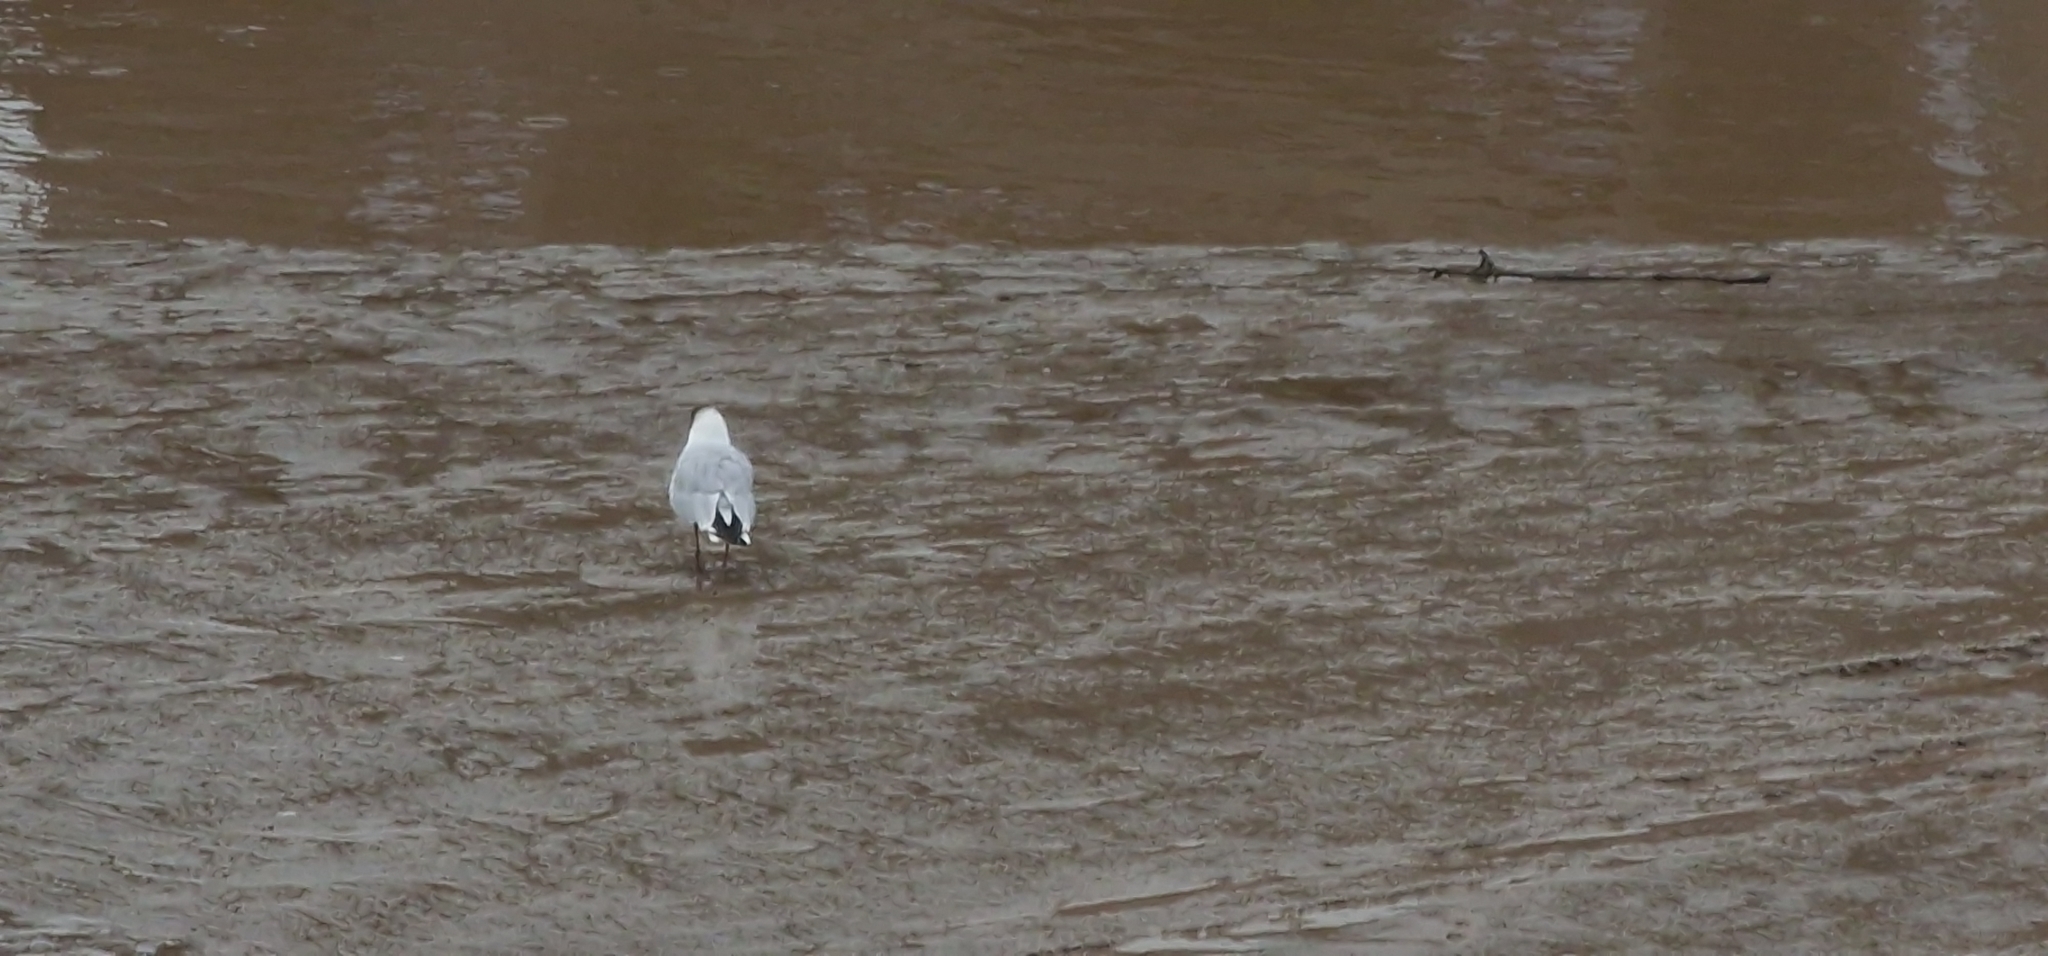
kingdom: Animalia
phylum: Chordata
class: Aves
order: Charadriiformes
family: Laridae
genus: Chroicocephalus
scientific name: Chroicocephalus ridibundus
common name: Black-headed gull
